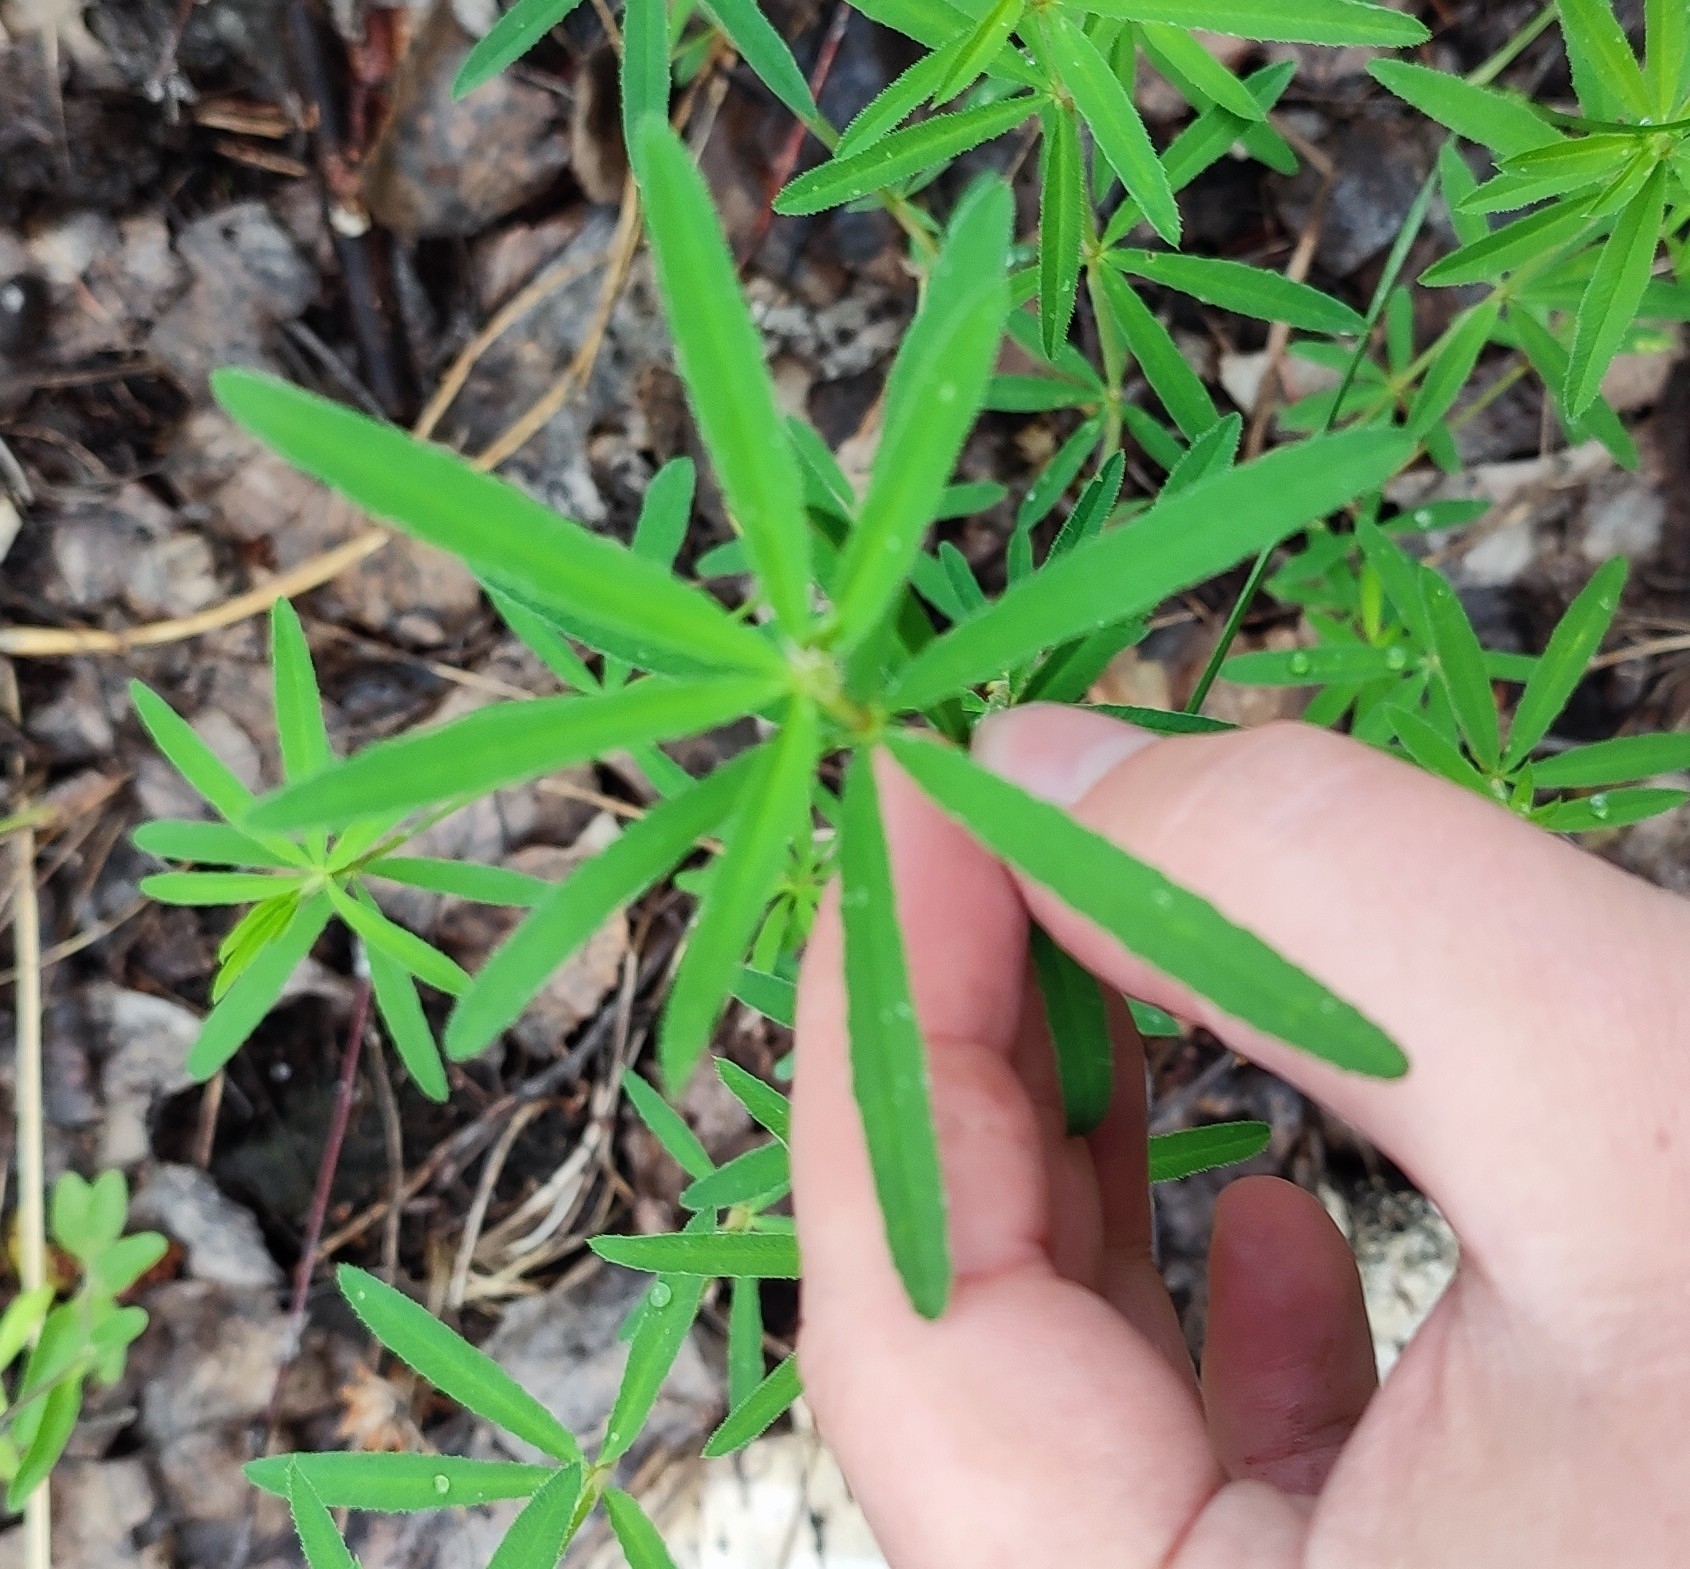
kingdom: Plantae
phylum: Tracheophyta
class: Magnoliopsida
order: Fabales
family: Fabaceae
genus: Trifolium
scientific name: Trifolium lupinaster
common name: Lupine clover
